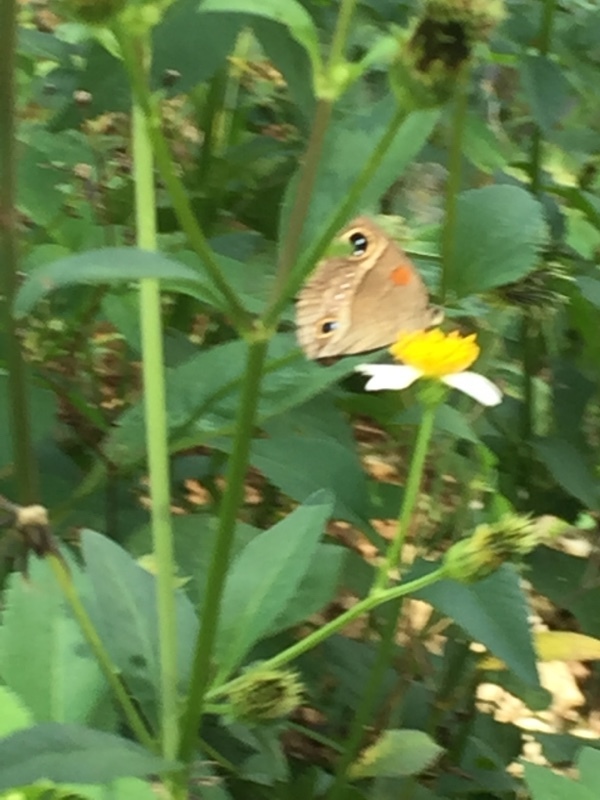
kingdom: Animalia
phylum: Arthropoda
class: Insecta
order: Lepidoptera
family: Nymphalidae
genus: Calisto
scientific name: Calisto herophile
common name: Cuban calisto
